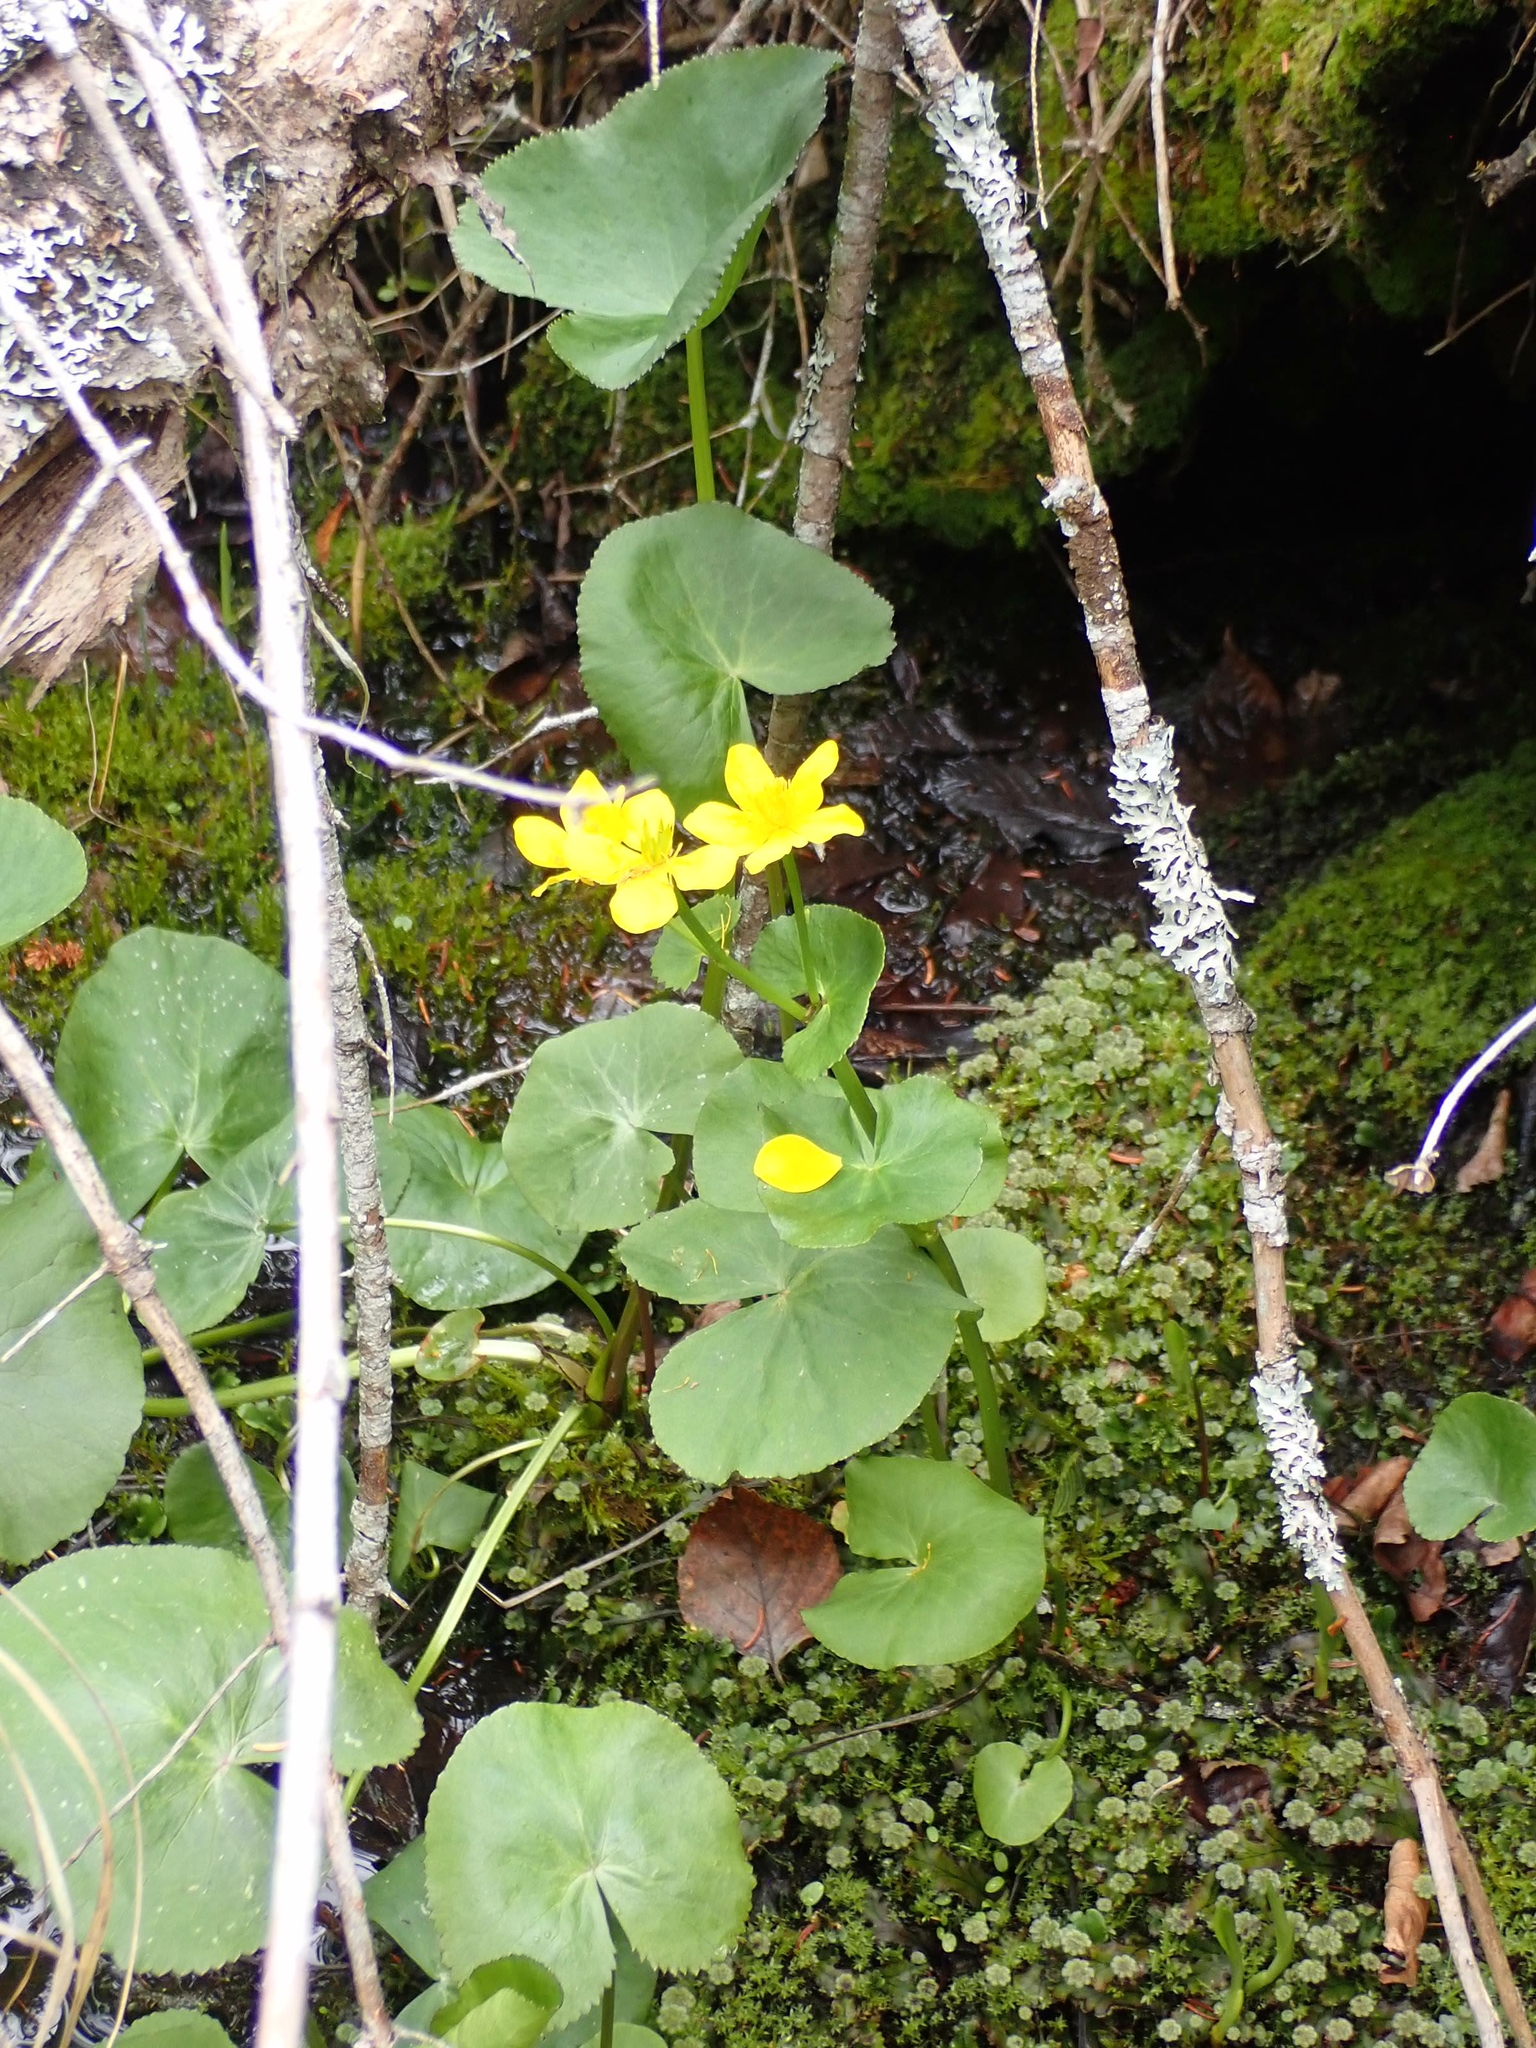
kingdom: Plantae
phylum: Tracheophyta
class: Magnoliopsida
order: Ranunculales
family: Ranunculaceae
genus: Caltha
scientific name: Caltha palustris
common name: Marsh marigold
